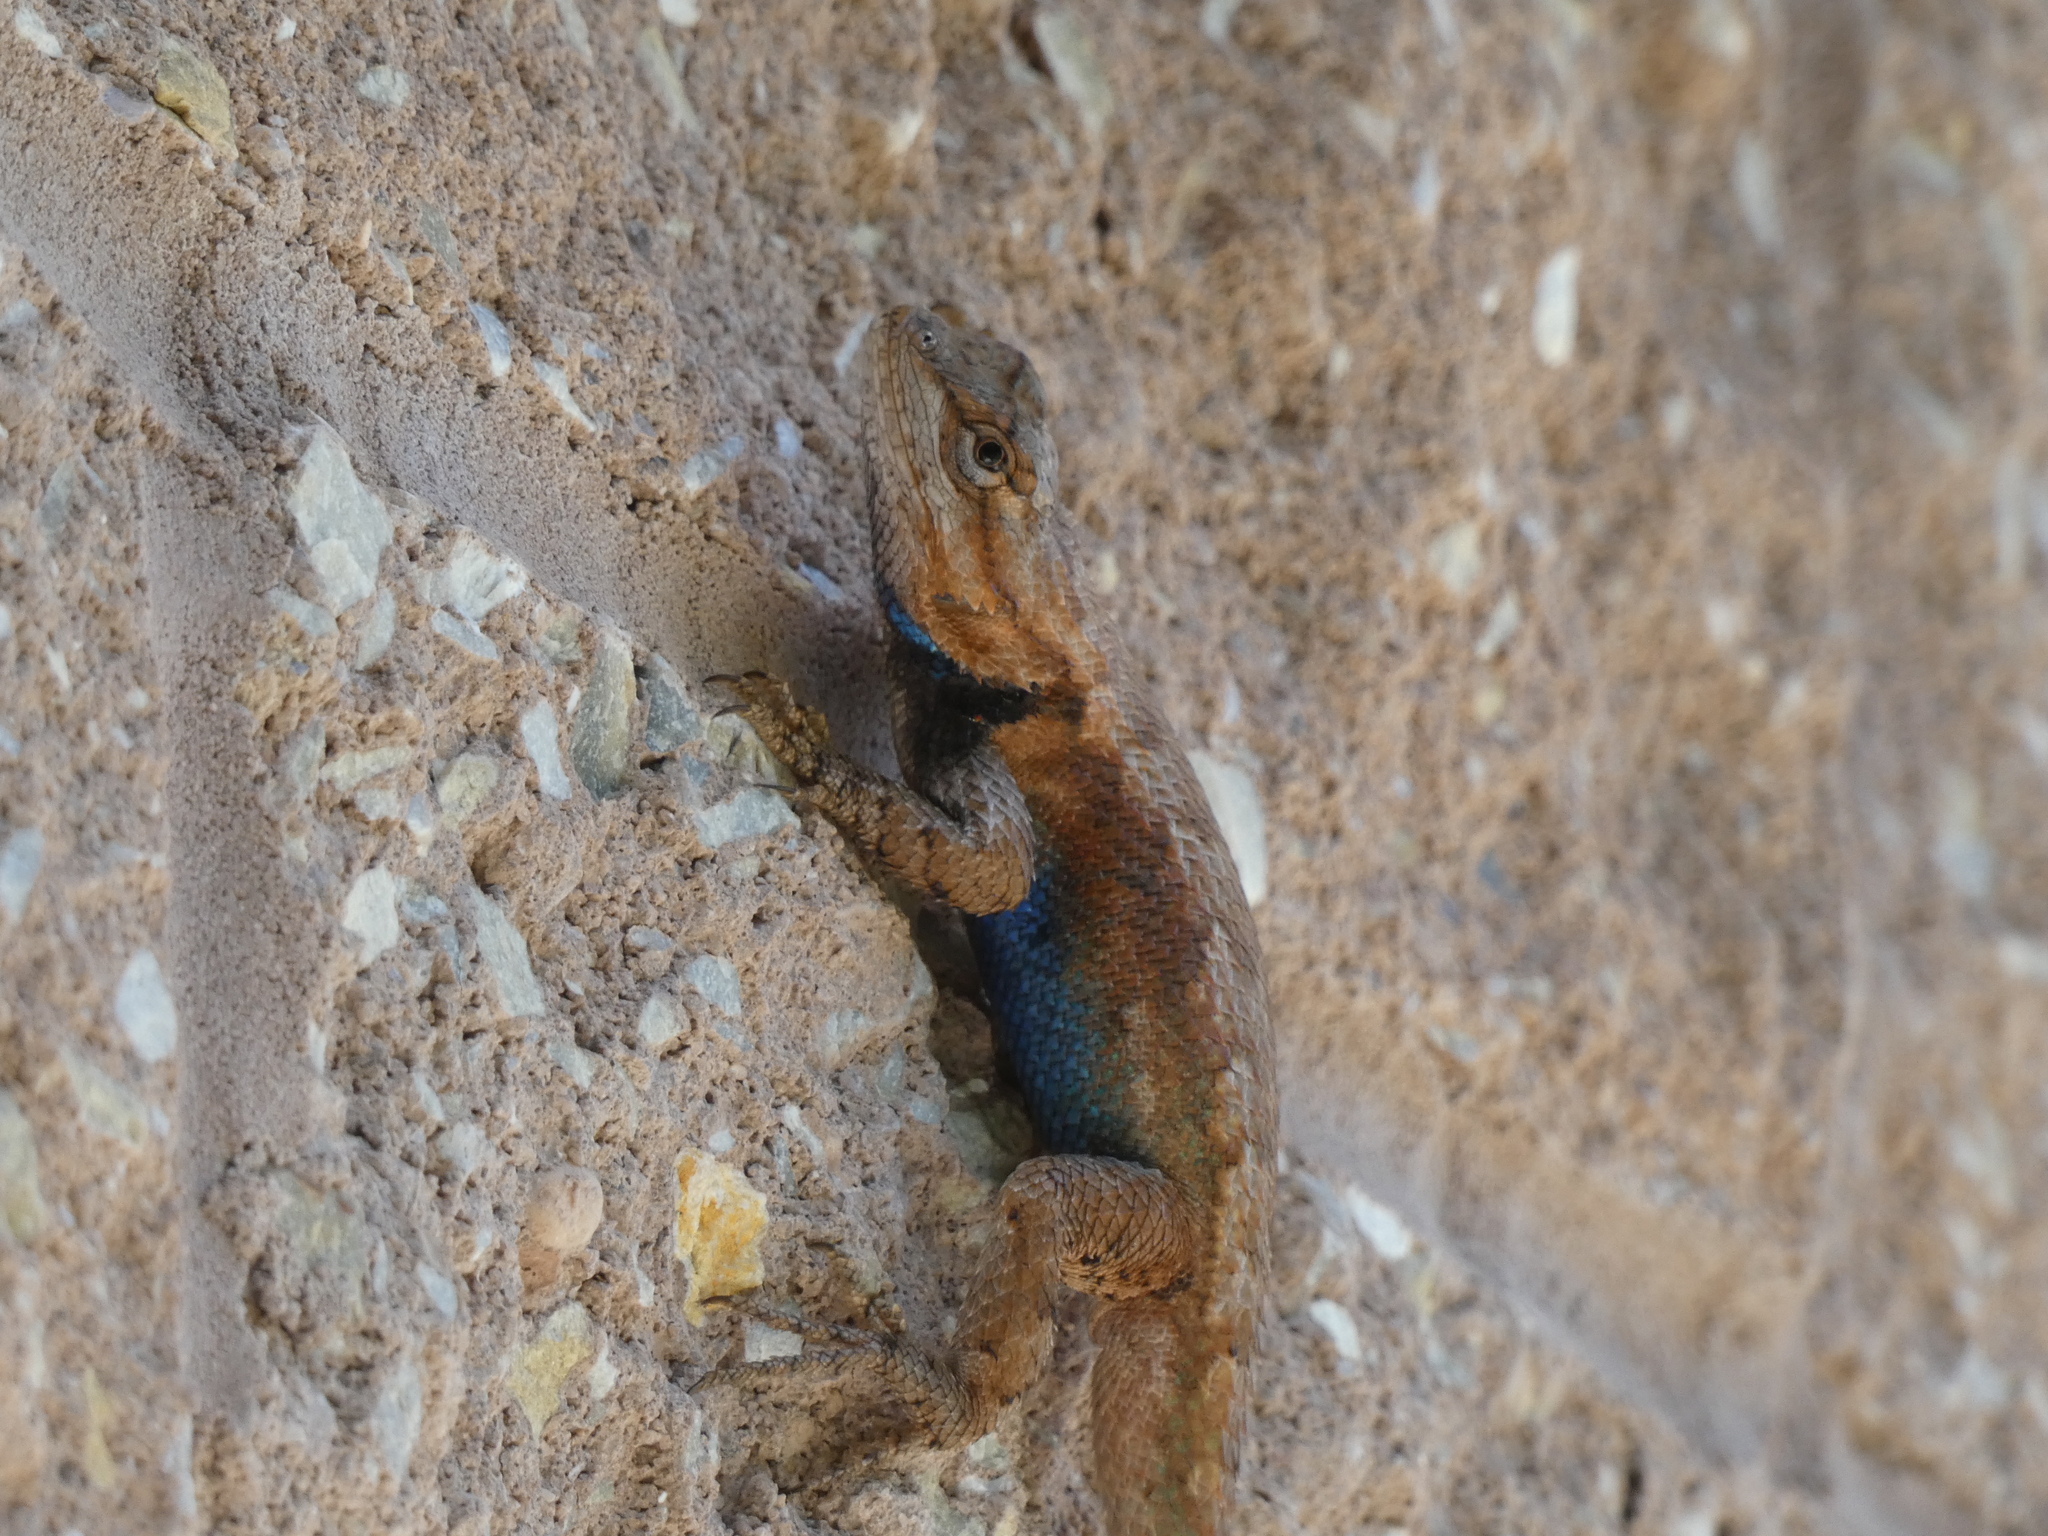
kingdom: Animalia
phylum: Chordata
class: Squamata
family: Phrynosomatidae
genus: Sceloporus
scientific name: Sceloporus undulatus
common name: Eastern fence lizard
